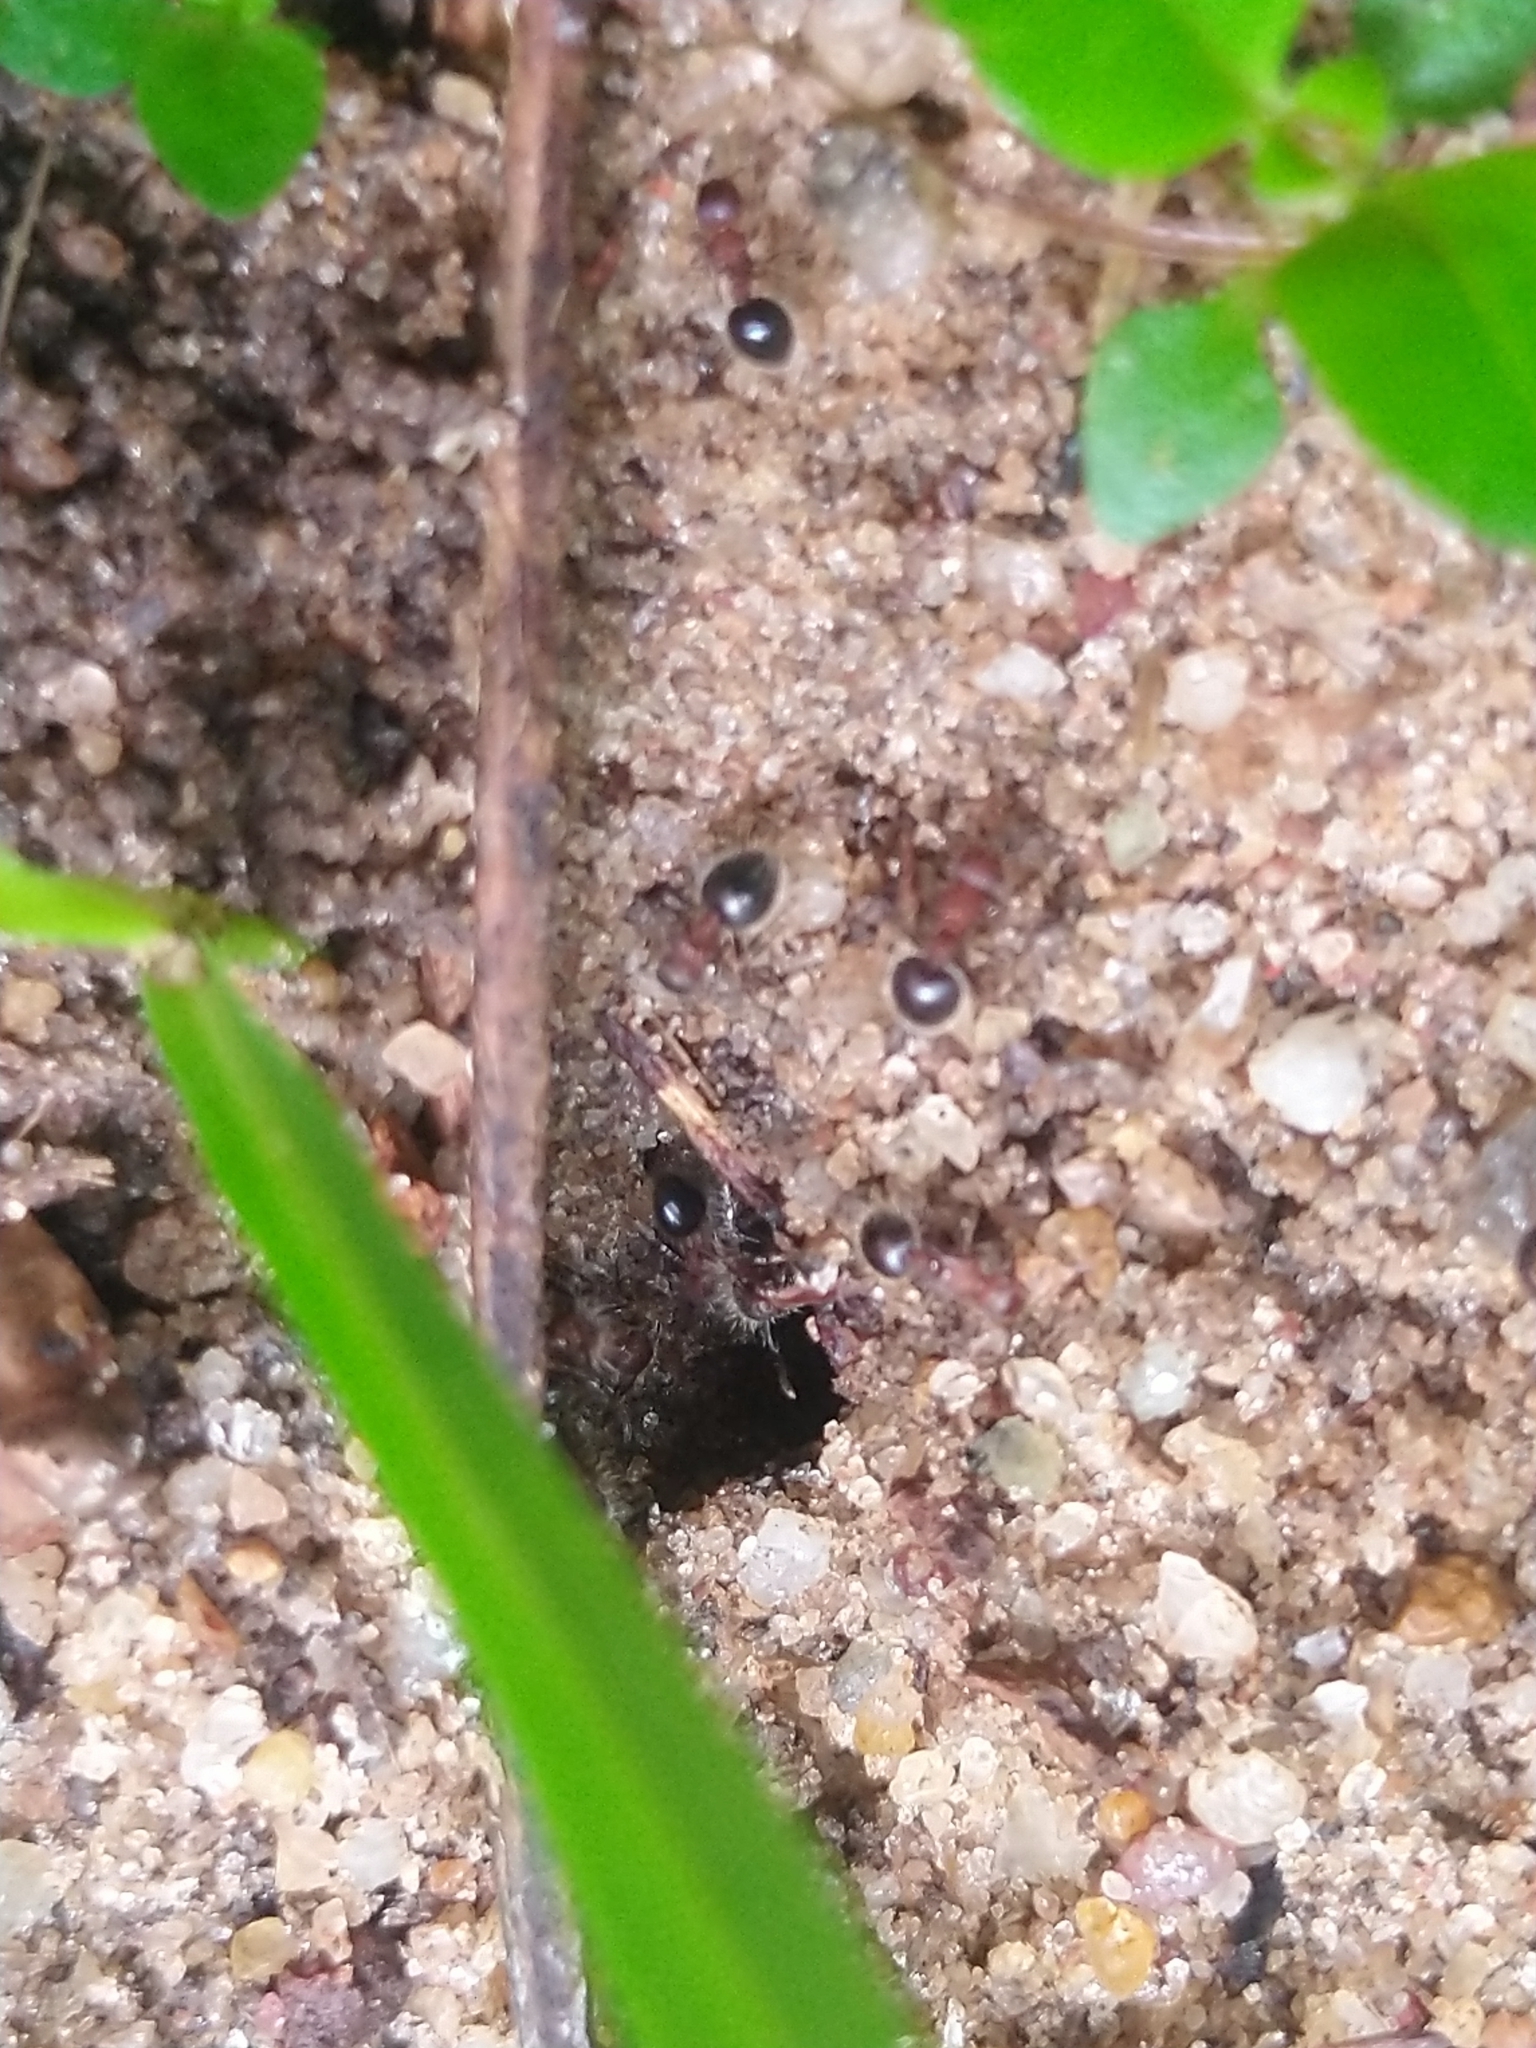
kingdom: Animalia
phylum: Arthropoda
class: Insecta
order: Hymenoptera
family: Formicidae
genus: Meranoplus
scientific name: Meranoplus bicolor
